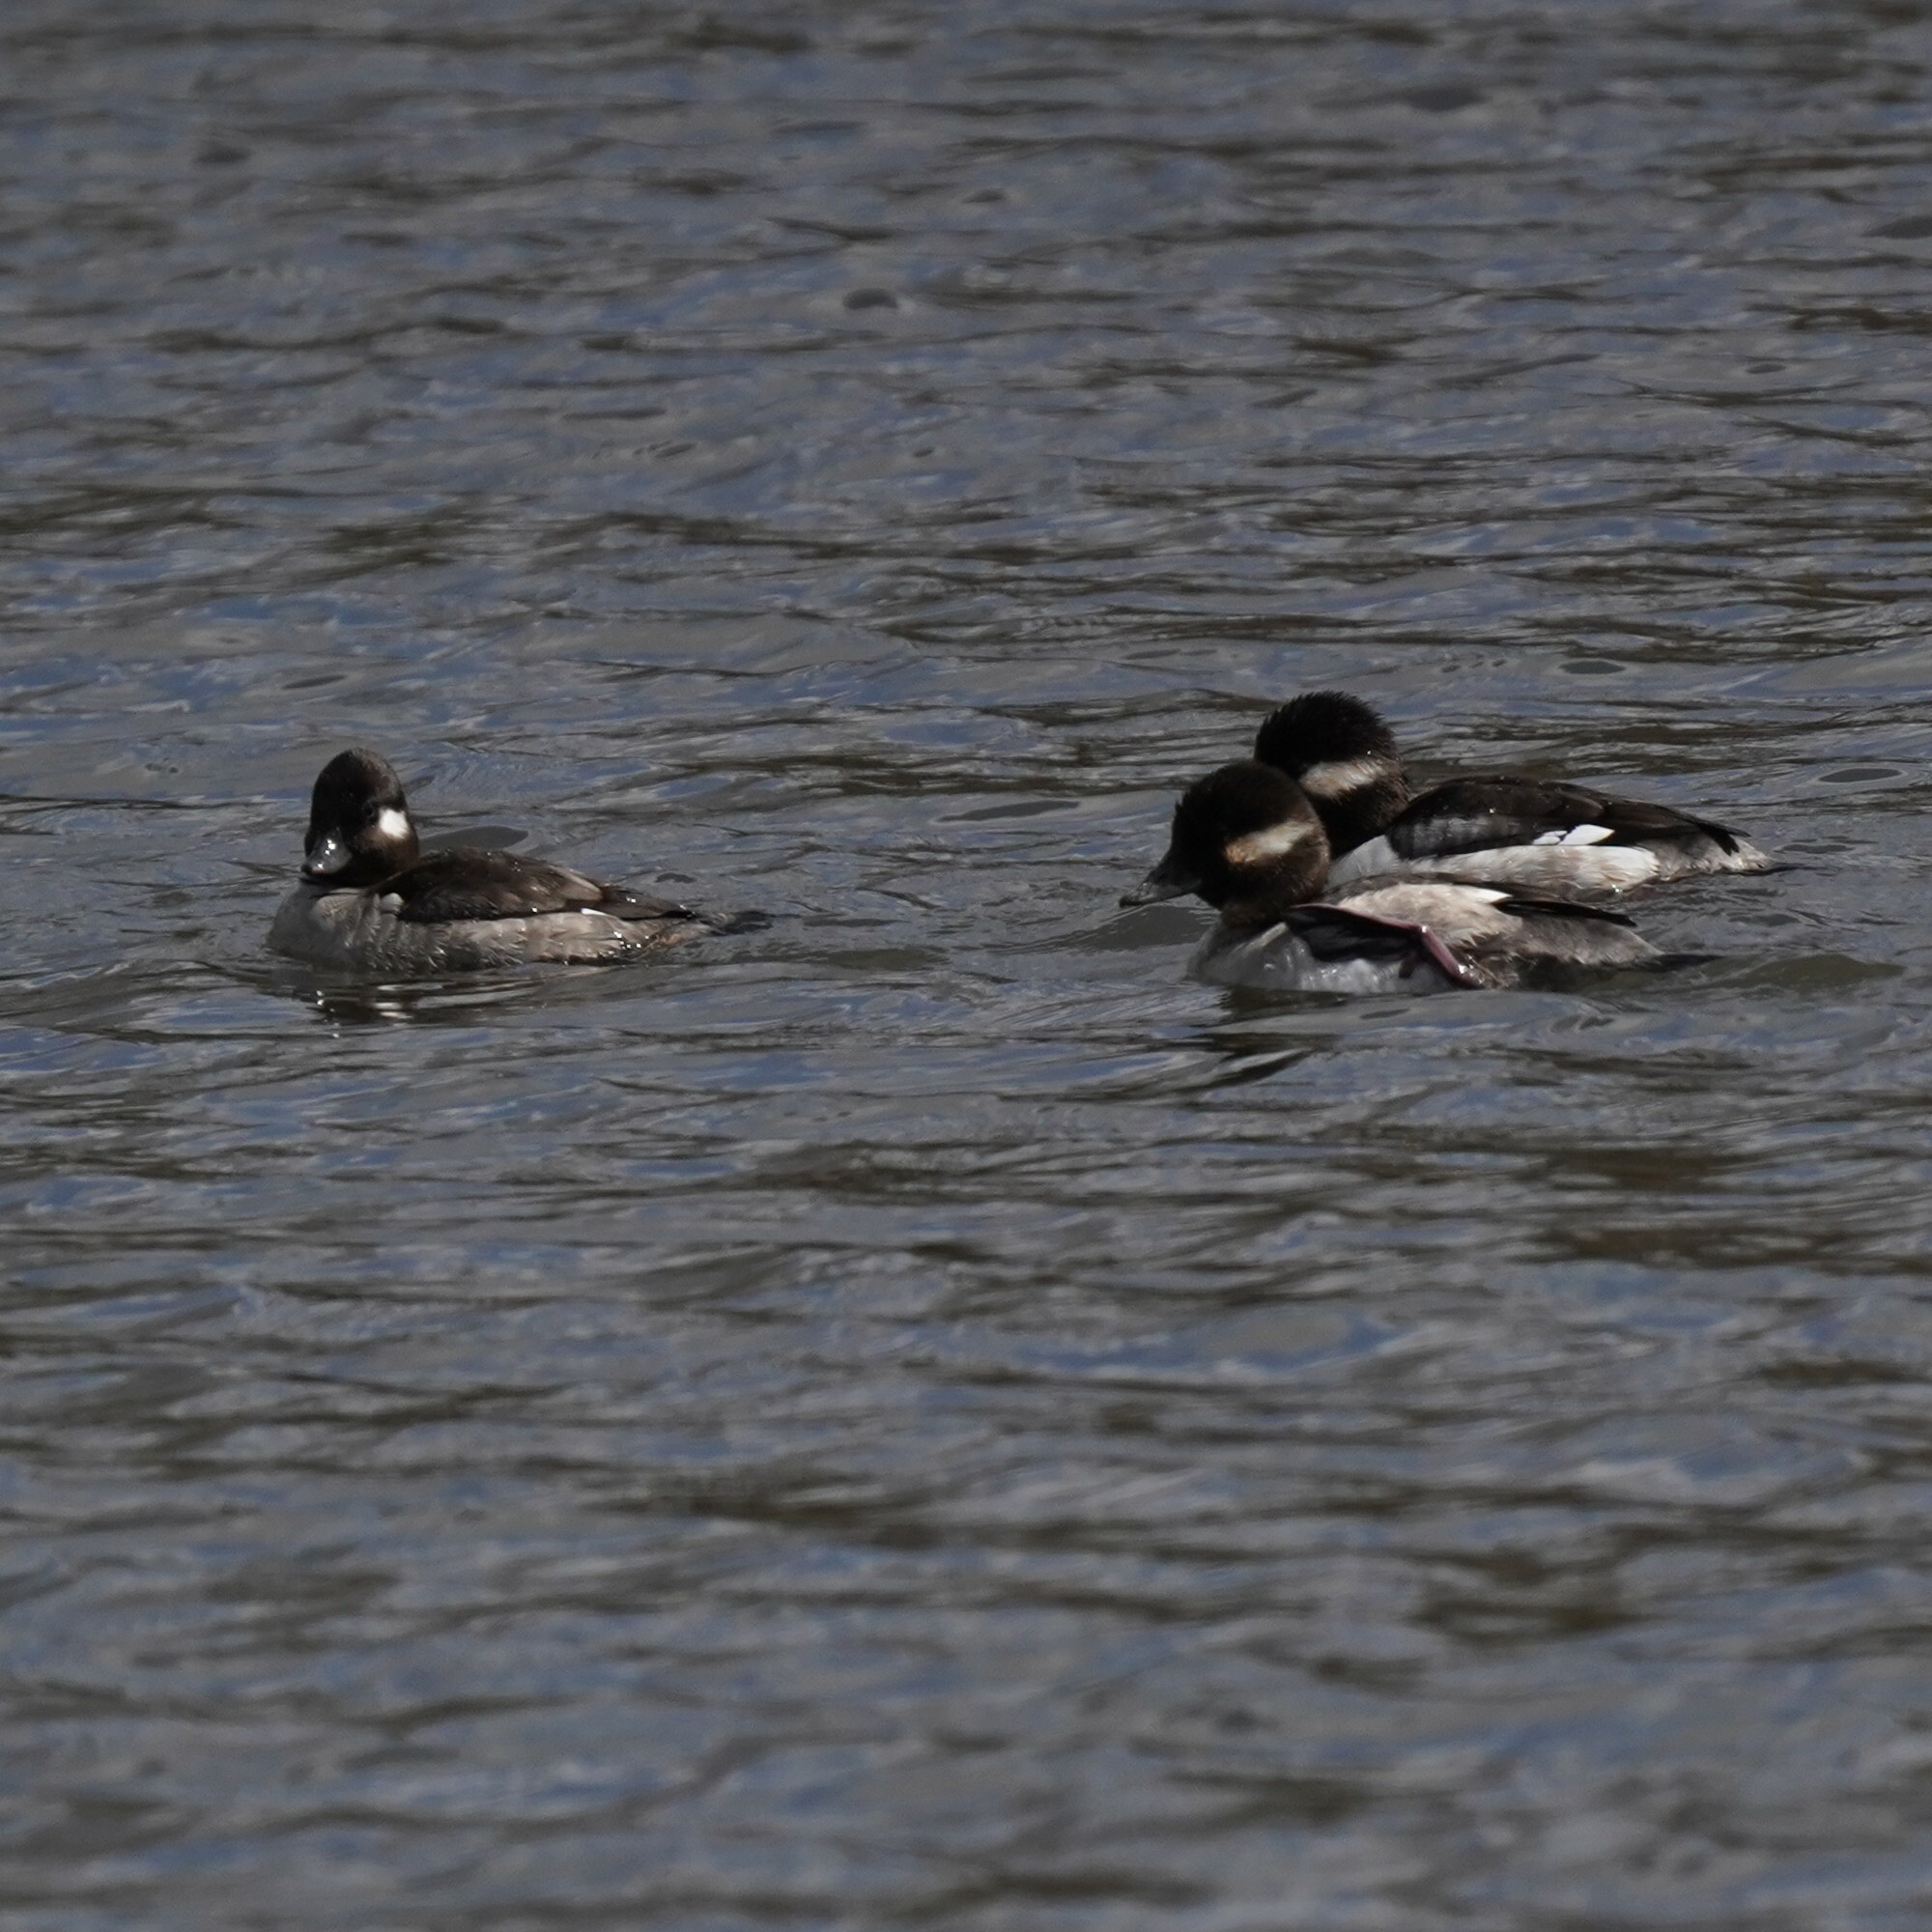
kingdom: Animalia
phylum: Chordata
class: Aves
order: Anseriformes
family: Anatidae
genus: Bucephala
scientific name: Bucephala albeola
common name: Bufflehead
